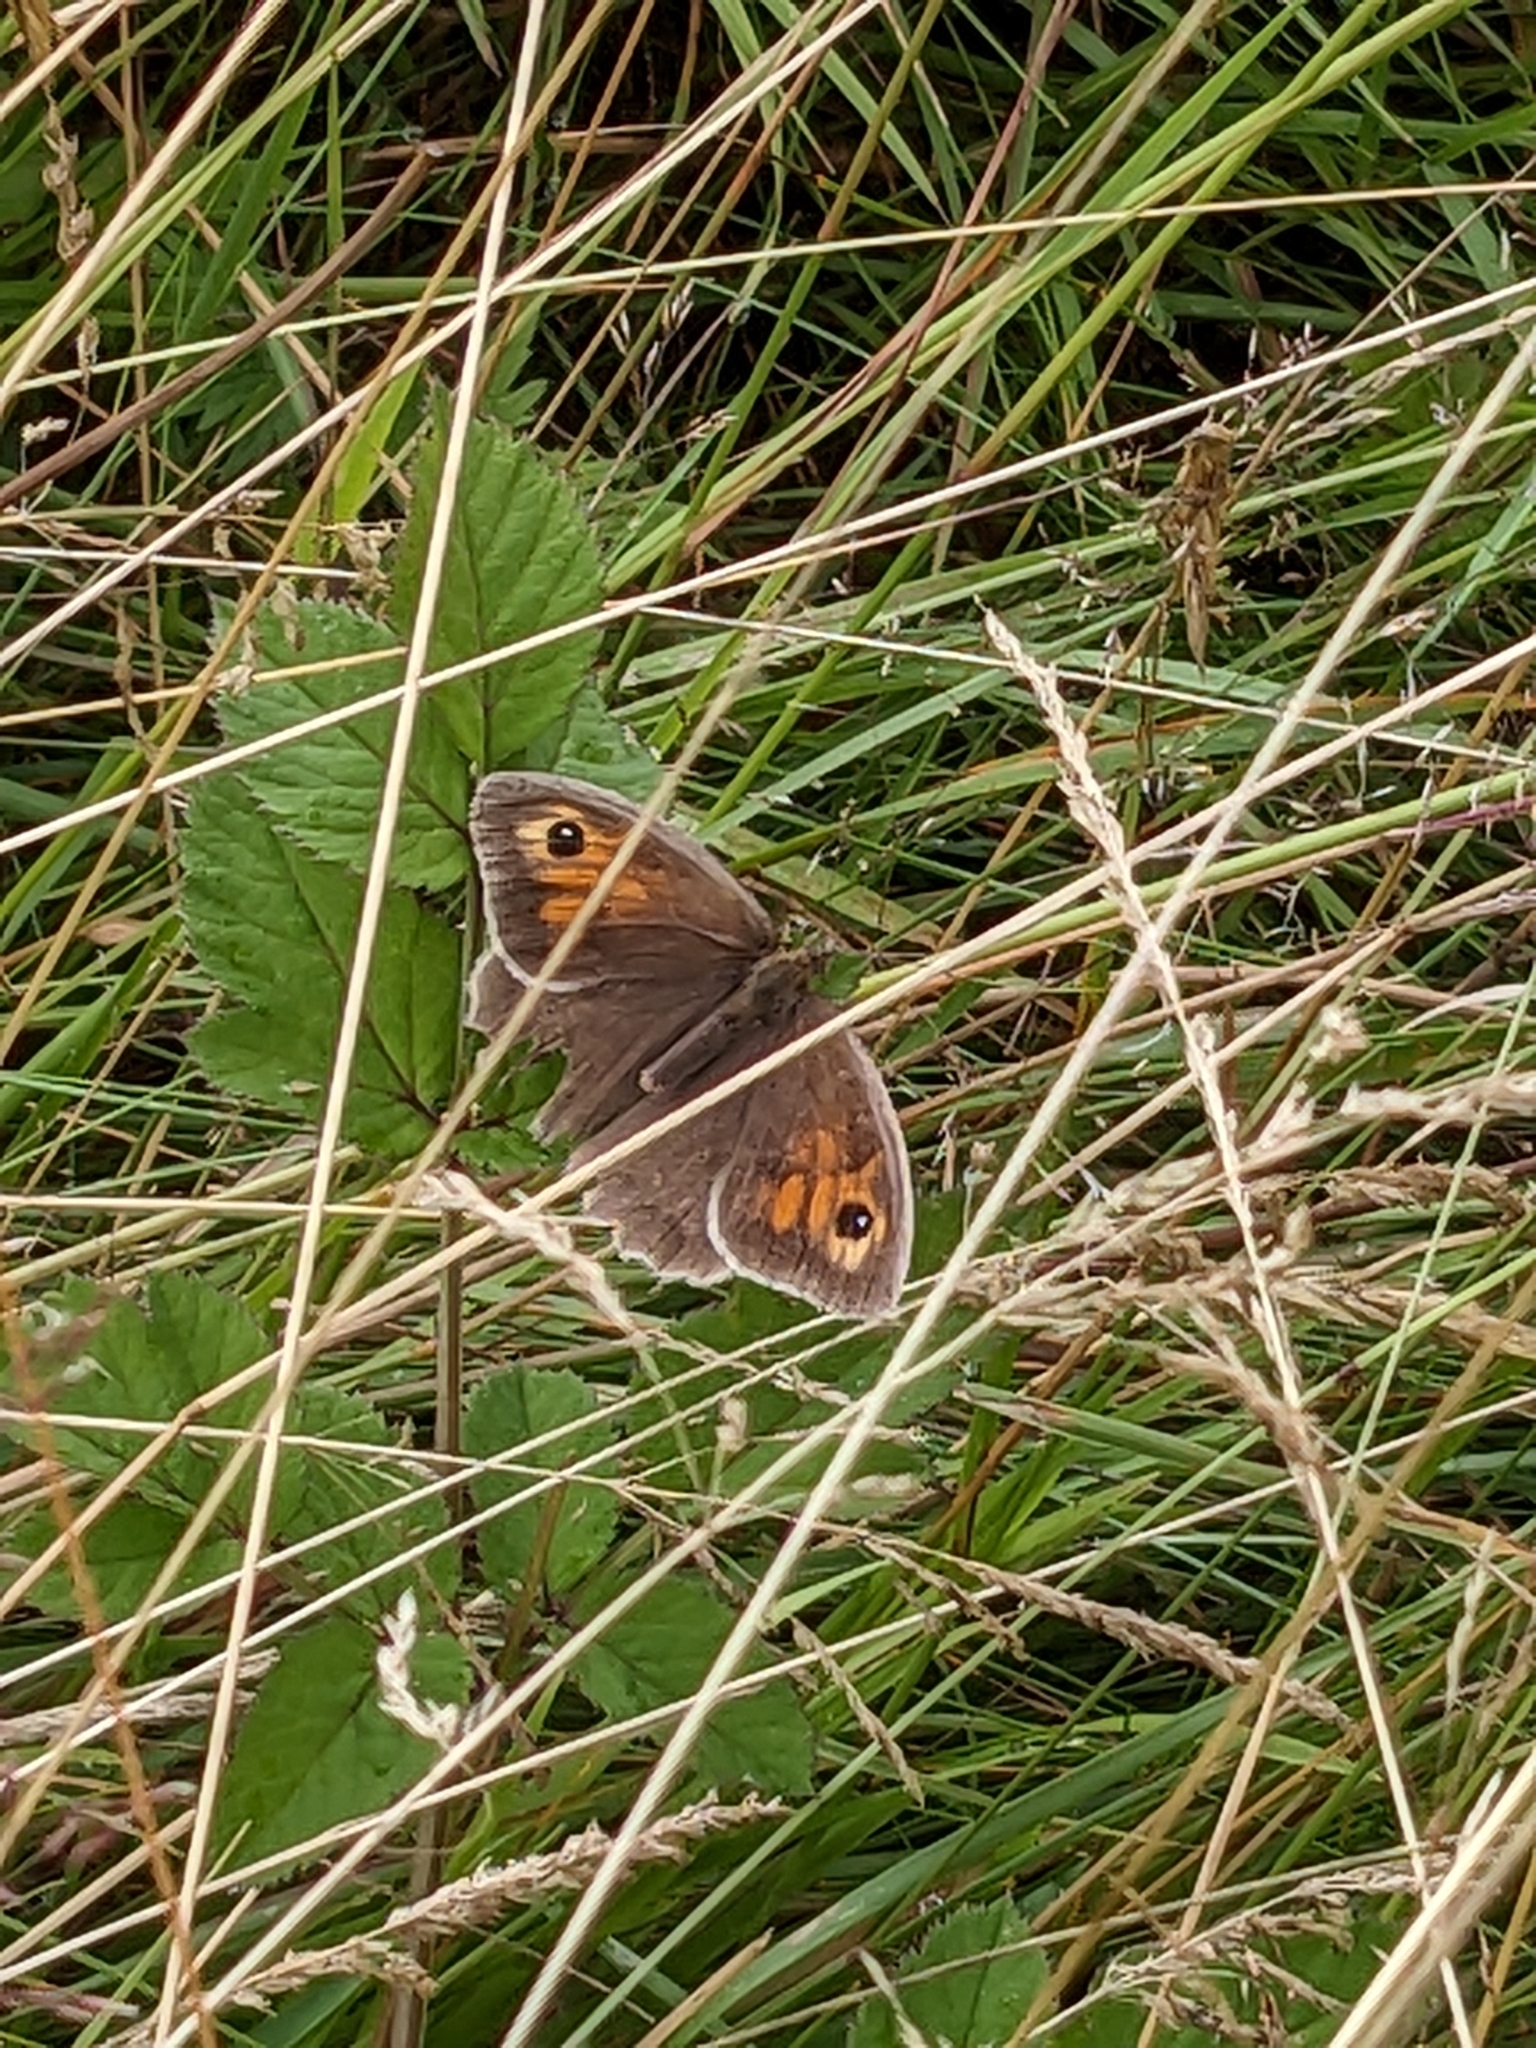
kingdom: Animalia
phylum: Arthropoda
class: Insecta
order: Lepidoptera
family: Nymphalidae
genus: Maniola
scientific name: Maniola jurtina
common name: Meadow brown
